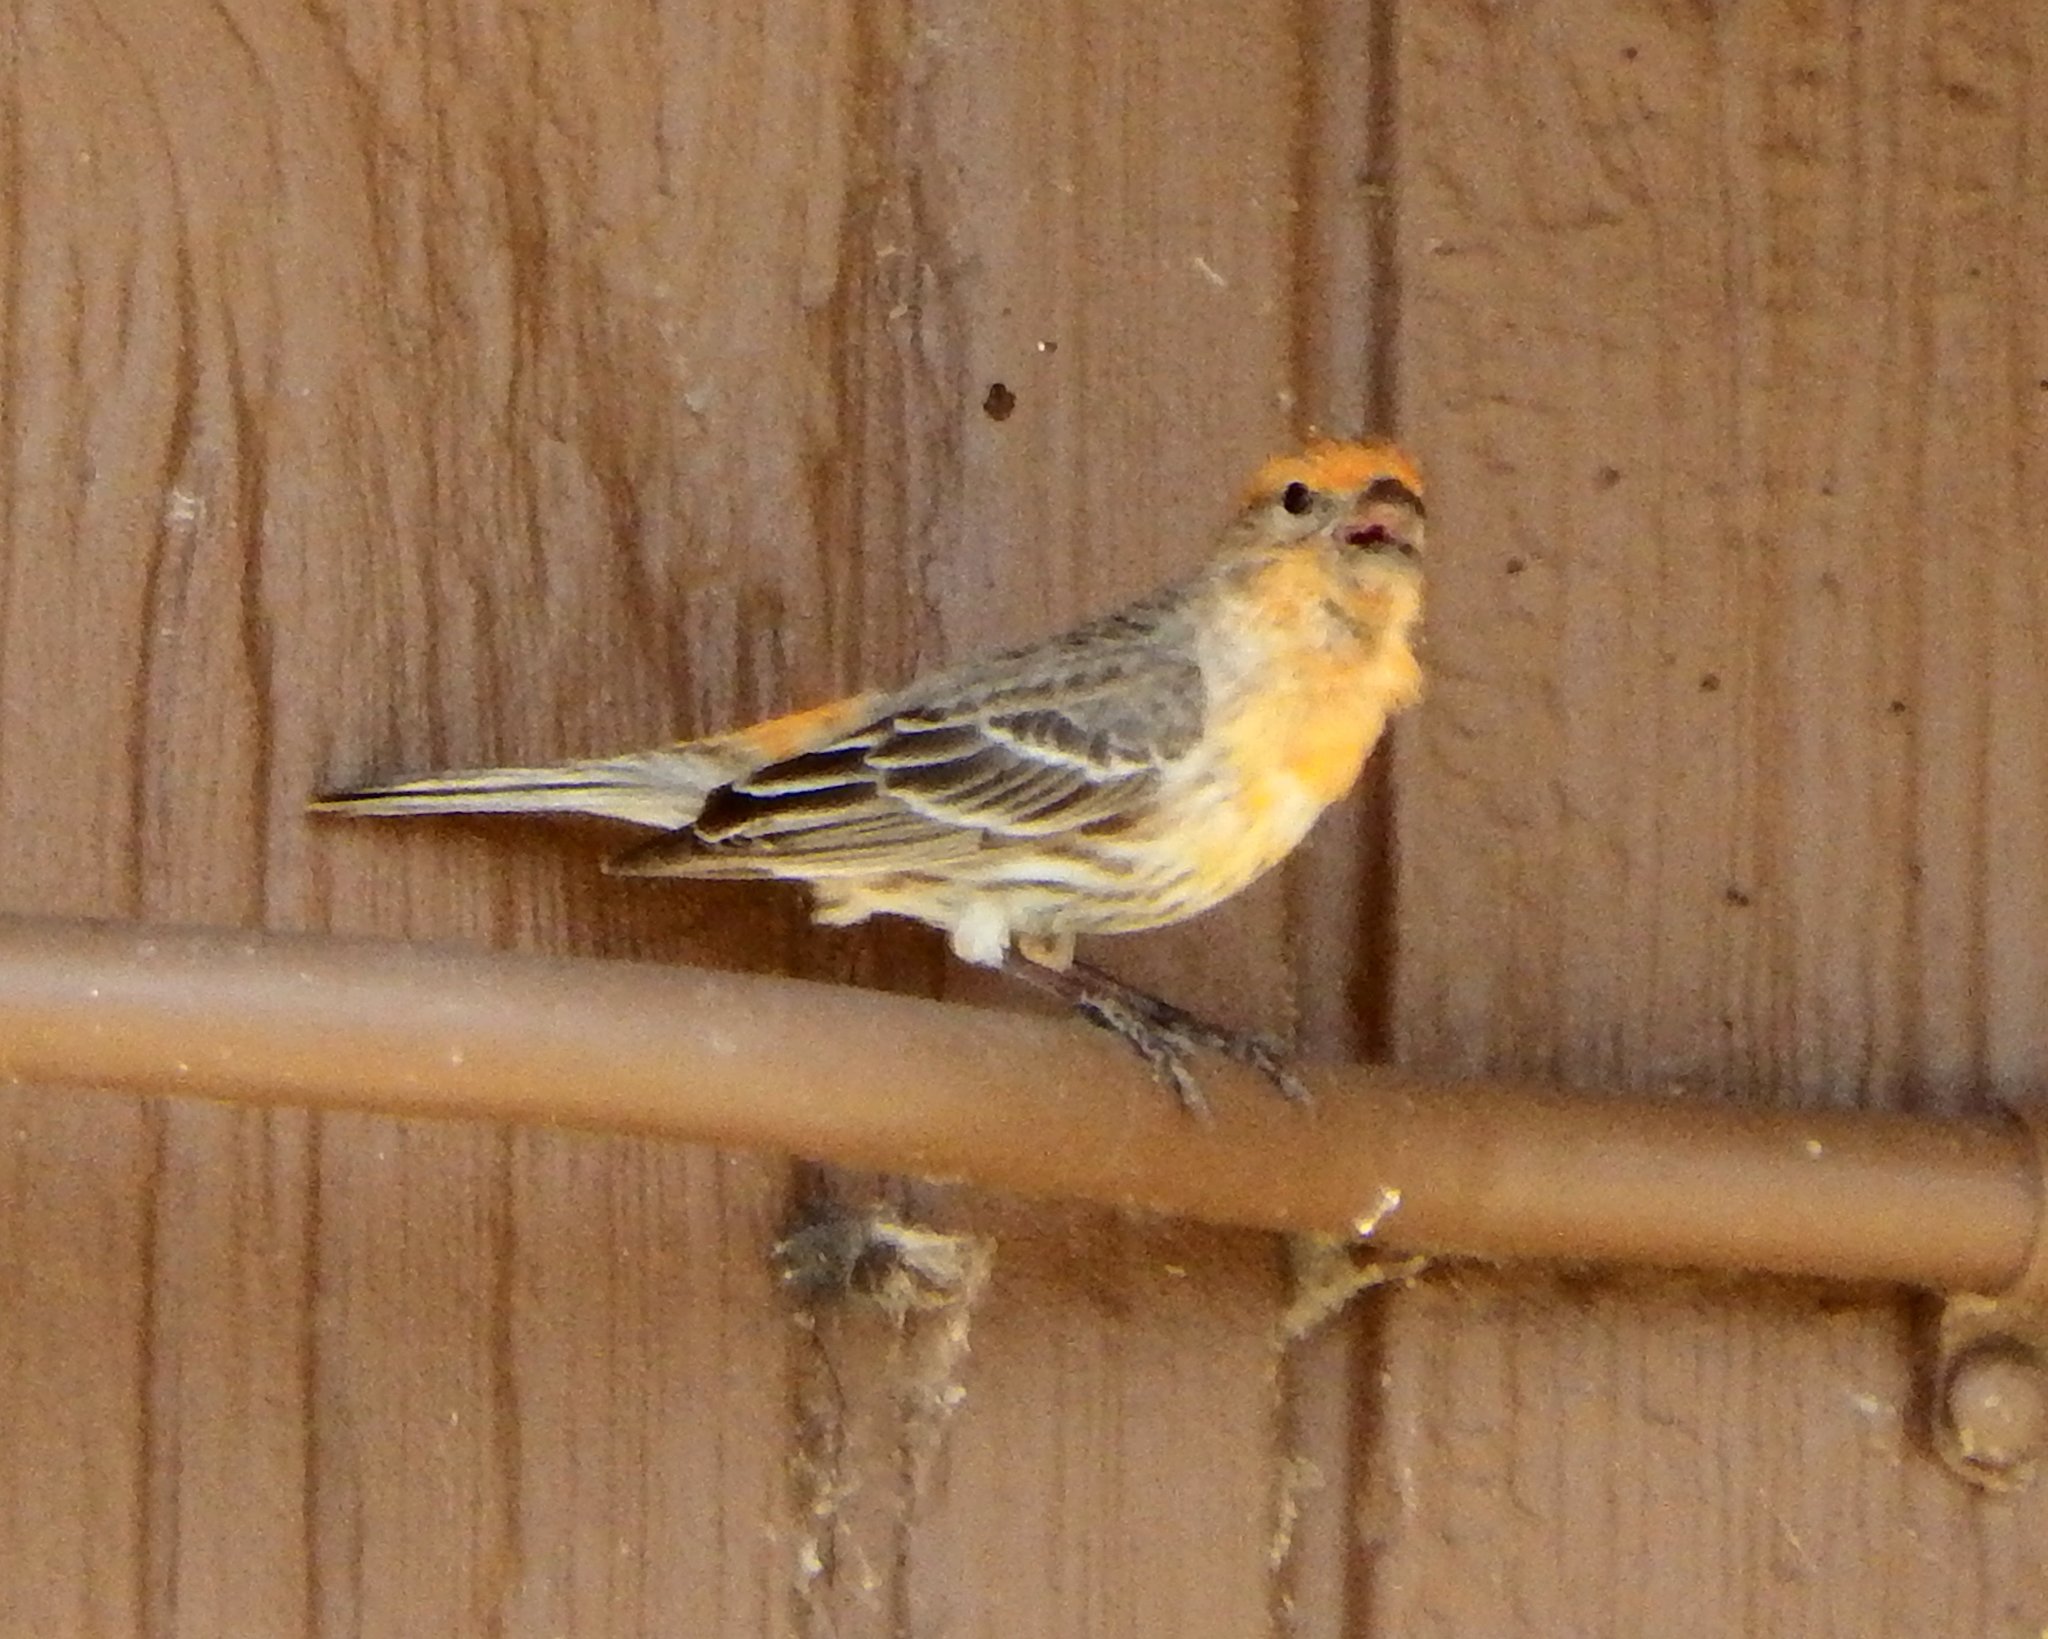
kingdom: Animalia
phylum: Chordata
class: Aves
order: Passeriformes
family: Fringillidae
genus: Haemorhous
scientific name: Haemorhous mexicanus
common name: House finch
